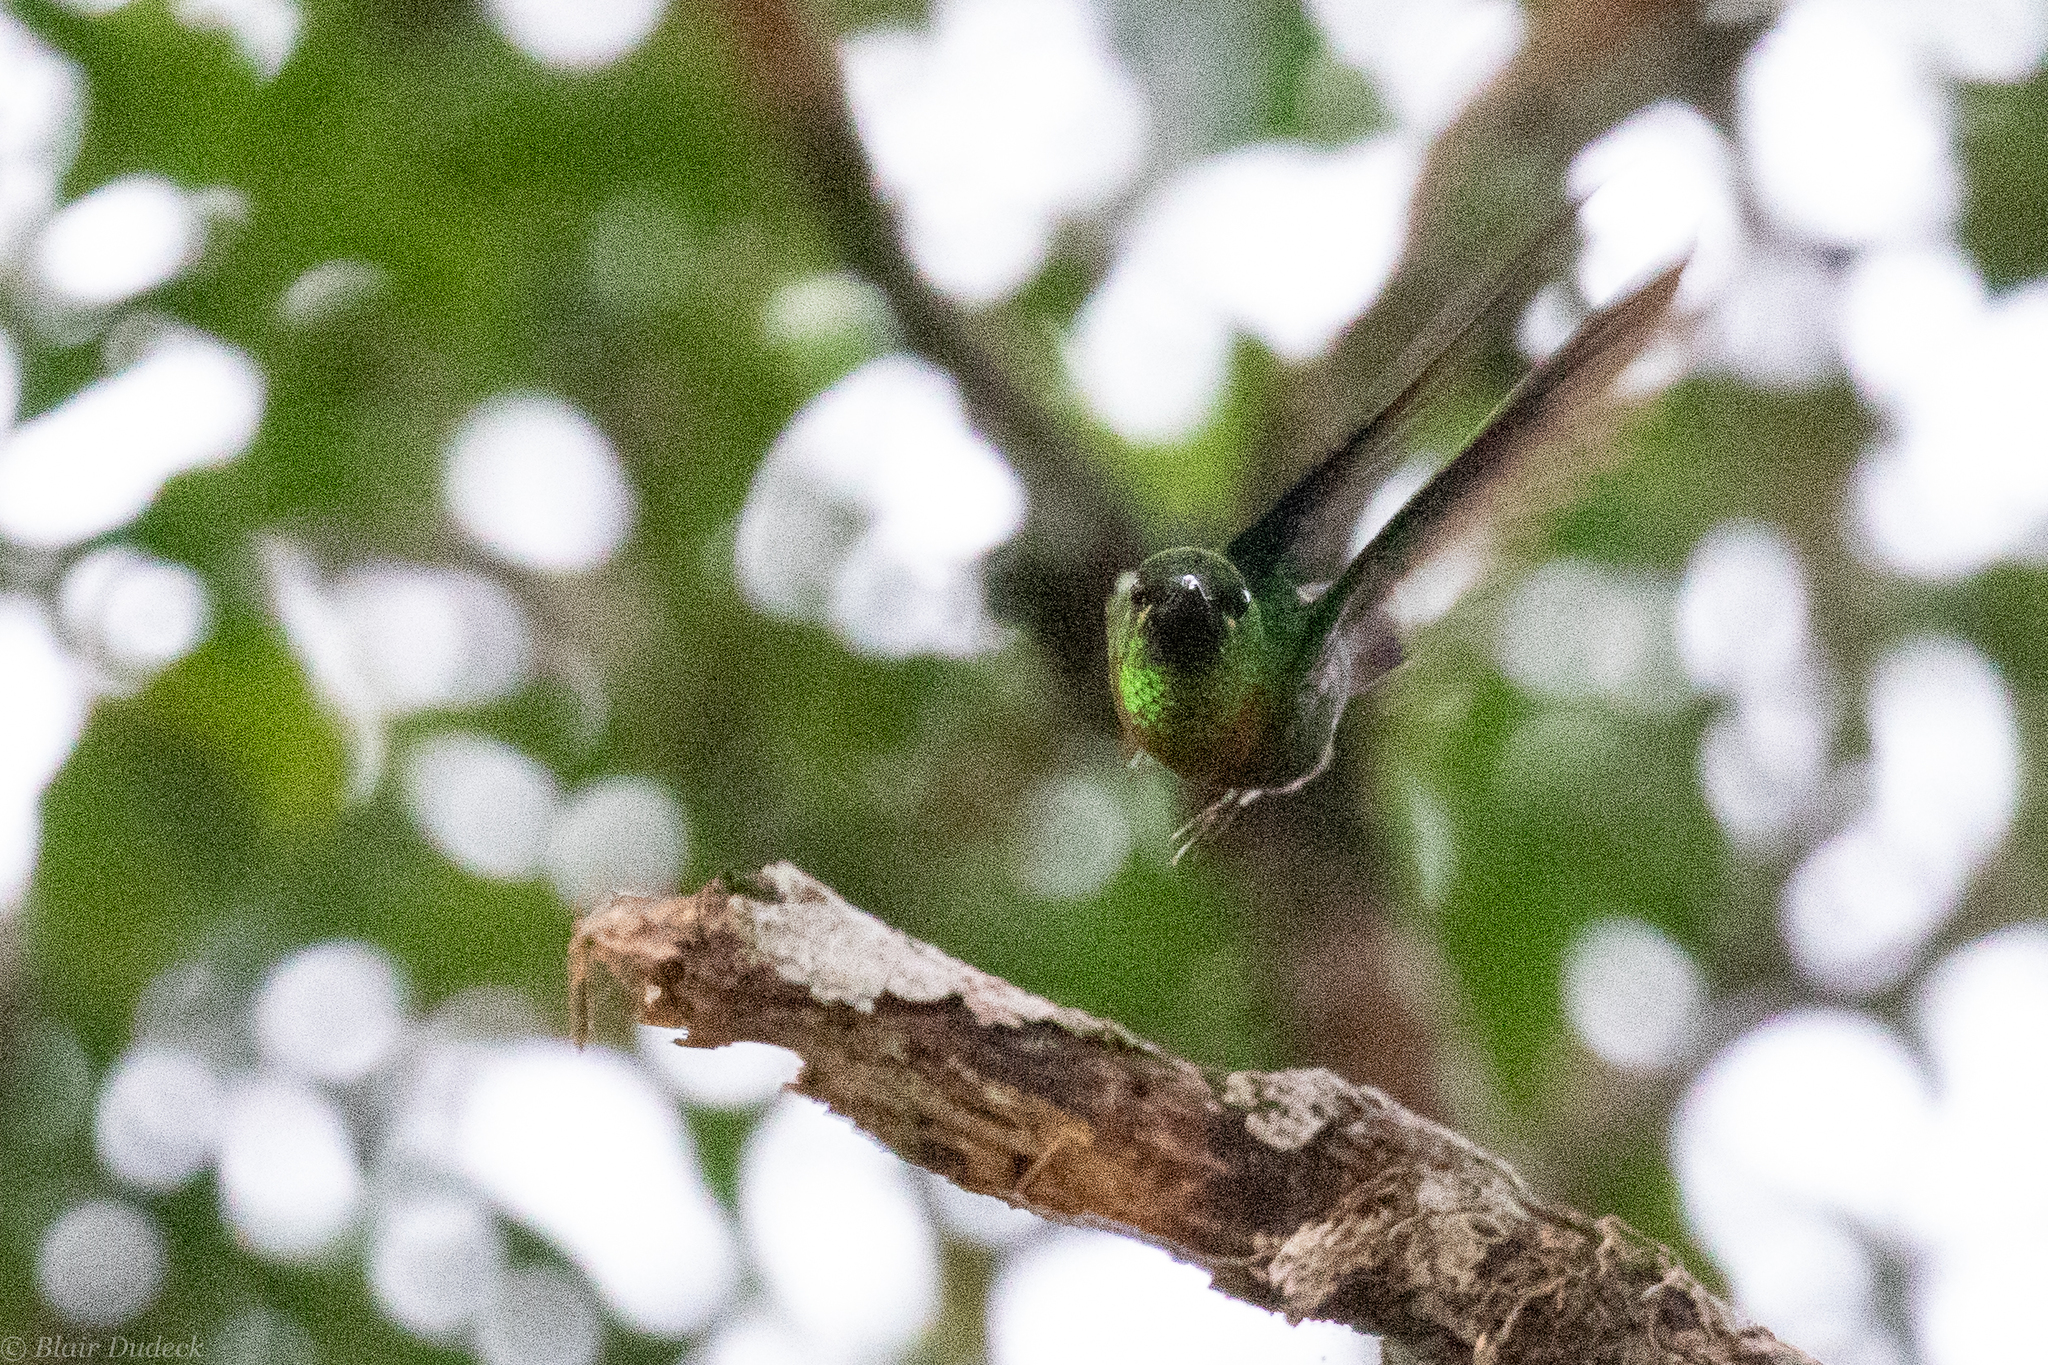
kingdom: Animalia
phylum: Chordata
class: Aves
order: Apodiformes
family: Trochilidae
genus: Heliodoxa
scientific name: Heliodoxa aurescens
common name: Gould's jewelfront
